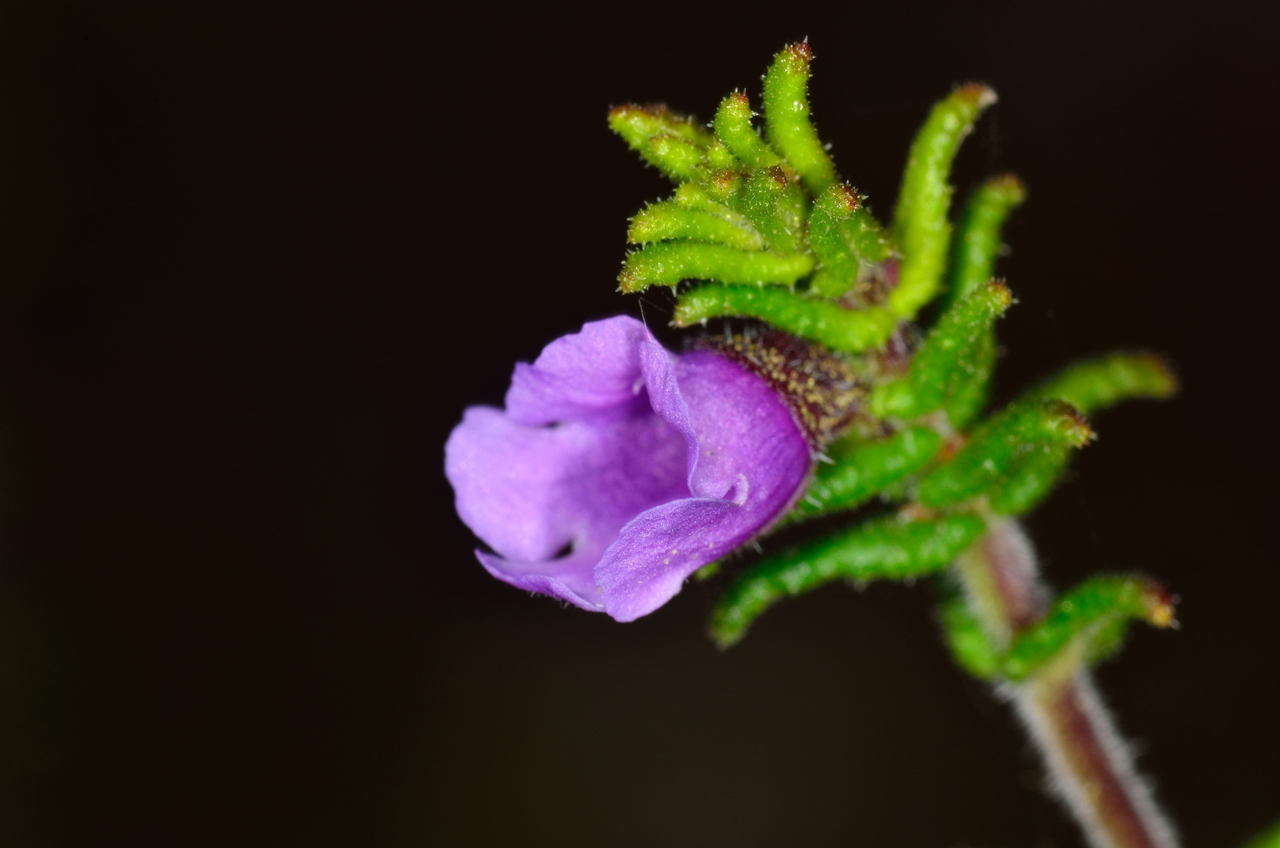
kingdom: Plantae
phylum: Tracheophyta
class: Magnoliopsida
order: Lamiales
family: Lamiaceae
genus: Prostanthera
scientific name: Prostanthera decussata
